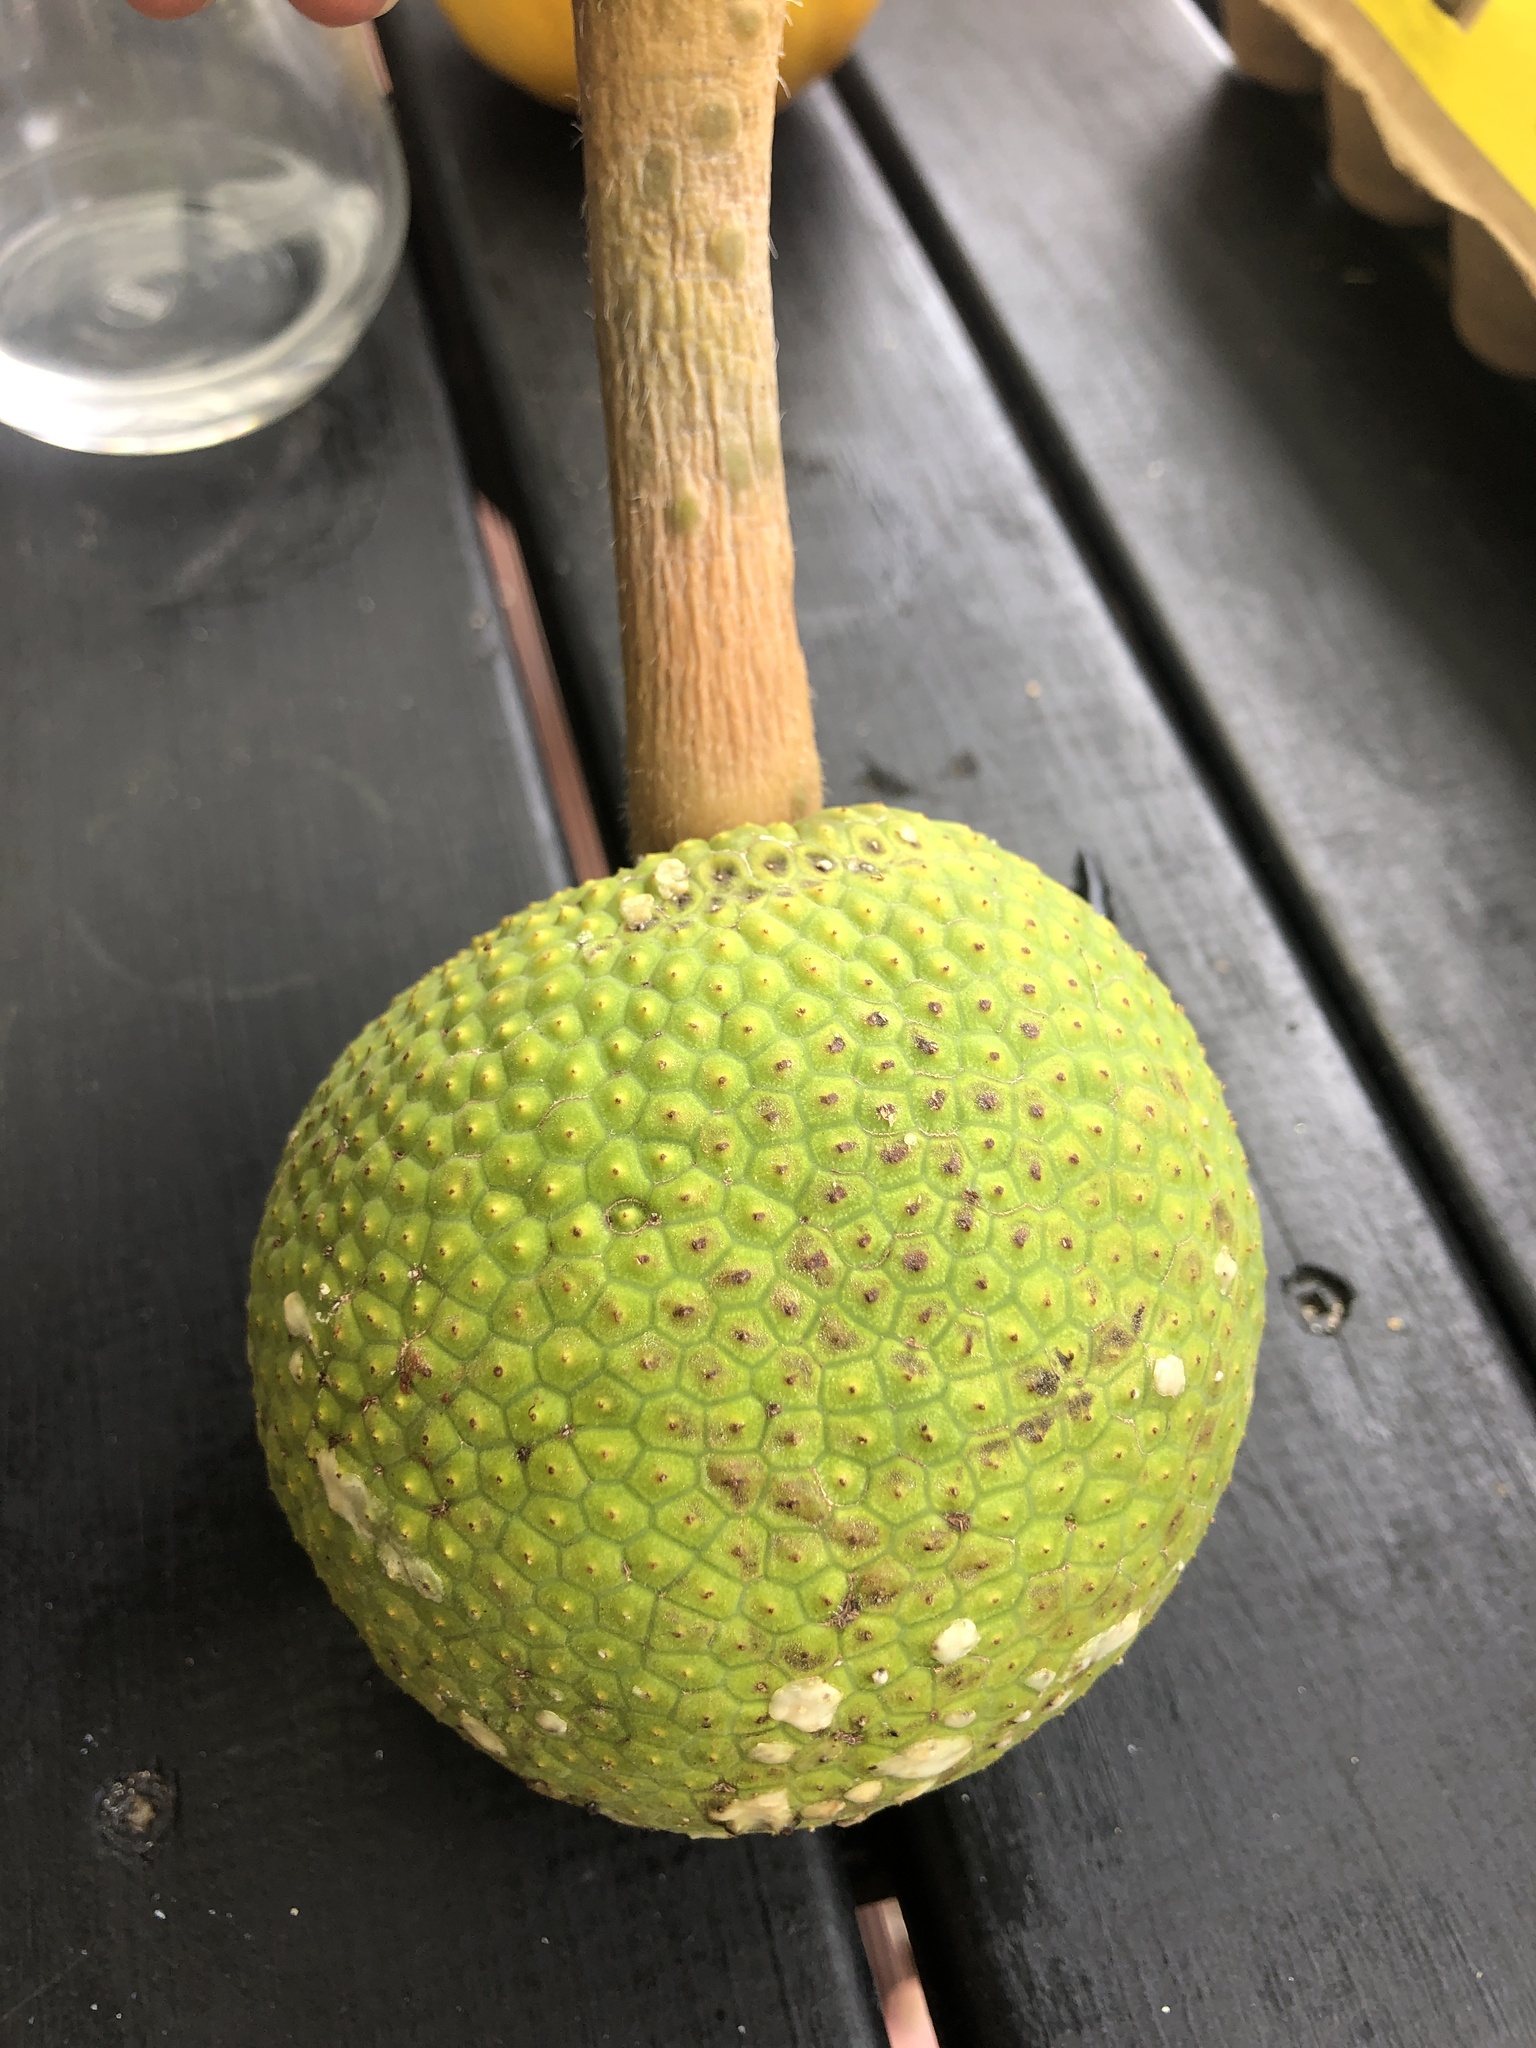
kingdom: Plantae
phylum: Tracheophyta
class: Magnoliopsida
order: Rosales
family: Moraceae
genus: Artocarpus
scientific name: Artocarpus altilis
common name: Breadfruit
